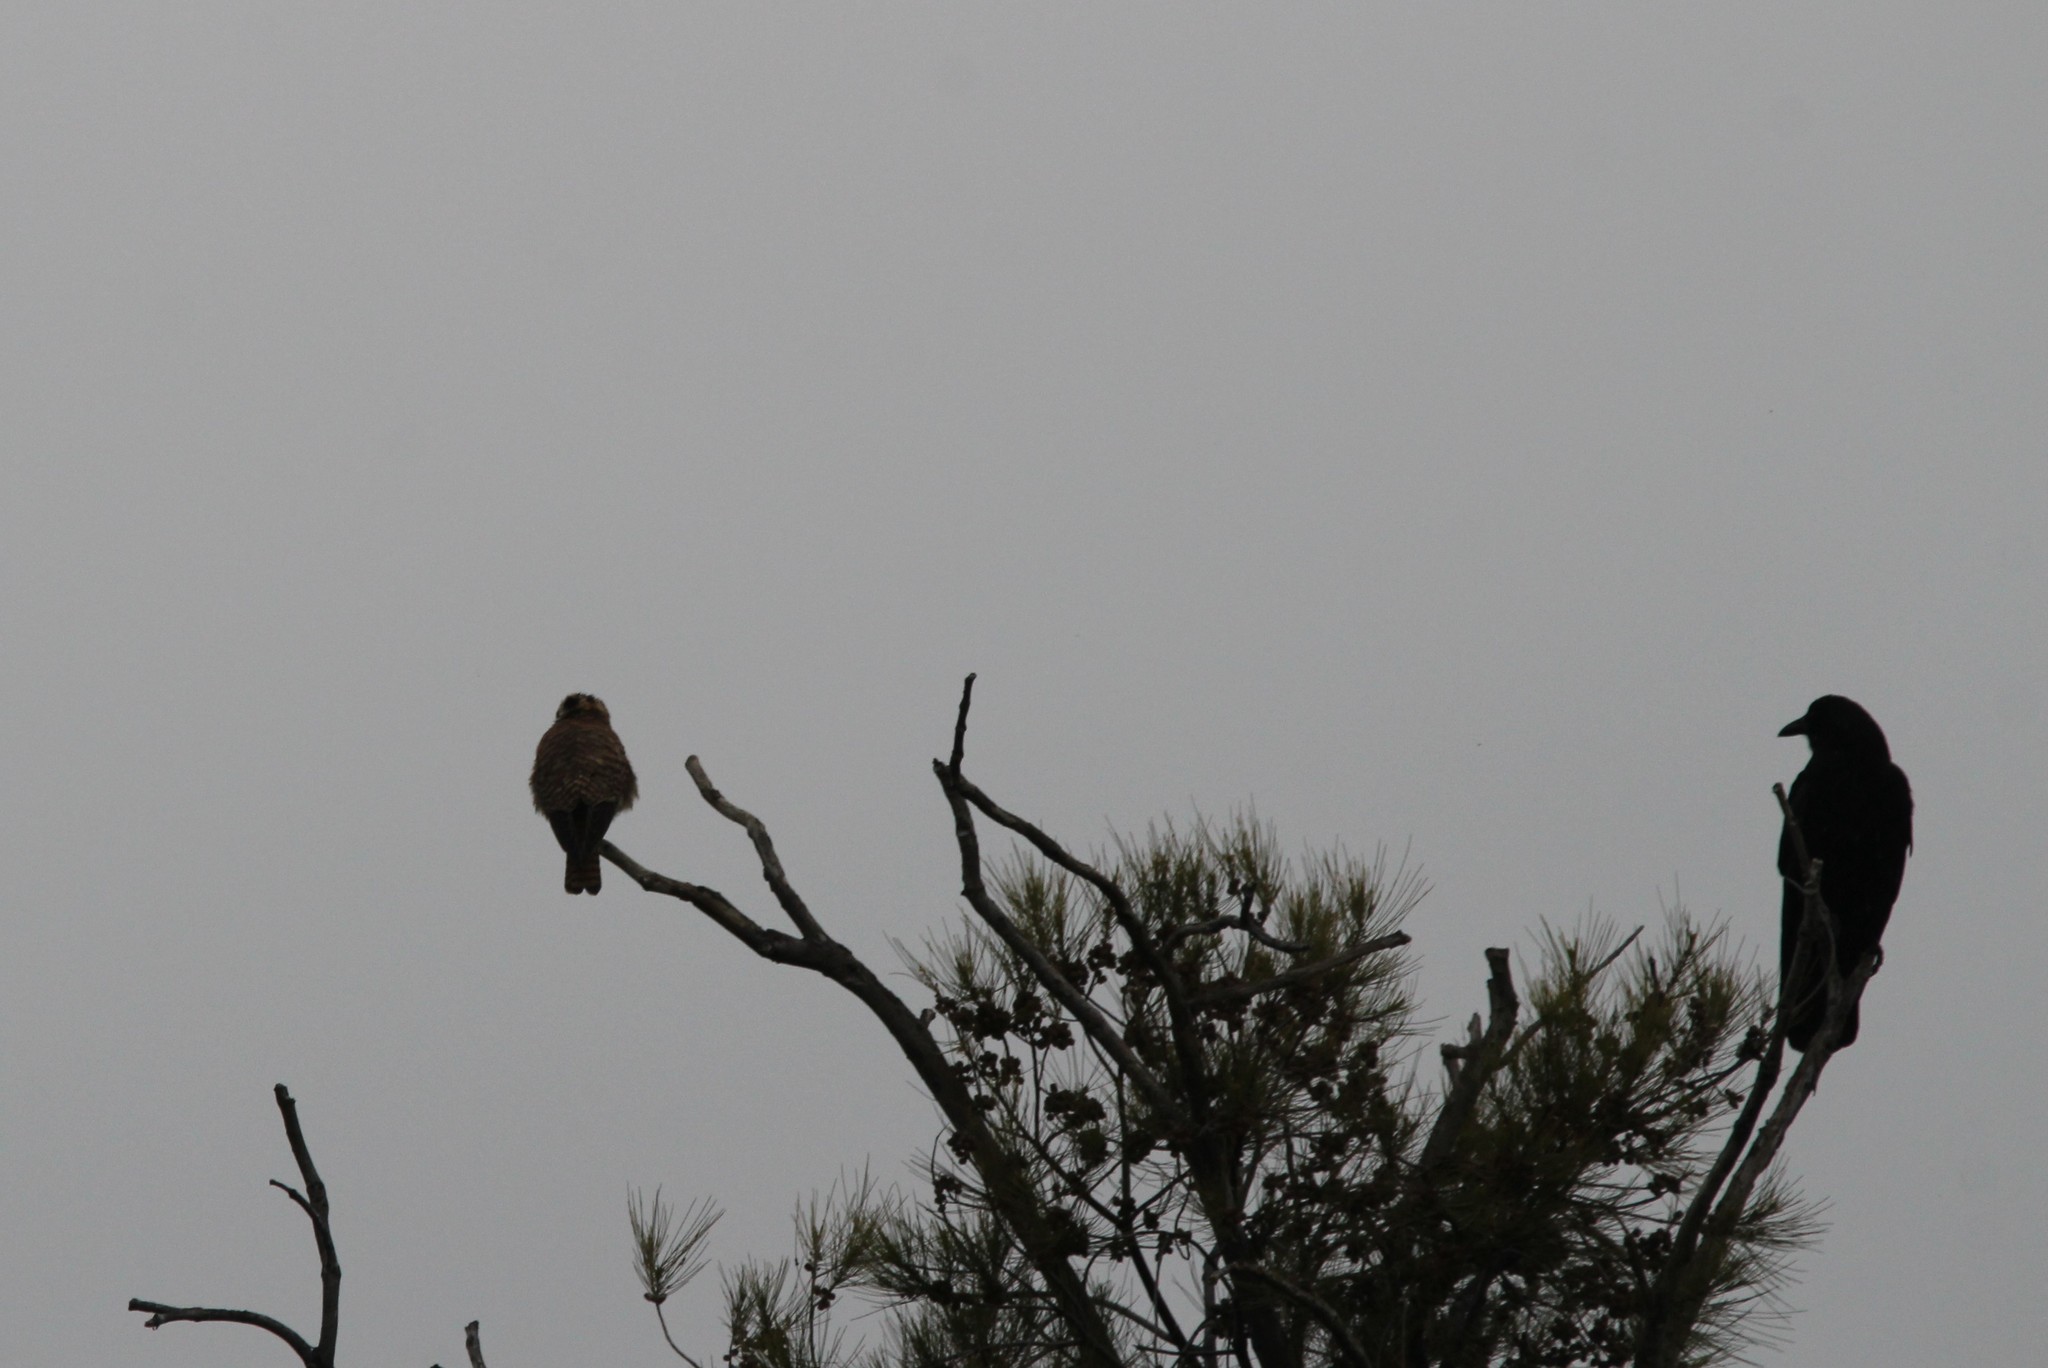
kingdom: Animalia
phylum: Chordata
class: Aves
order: Falconiformes
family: Falconidae
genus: Falco
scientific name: Falco sparverius
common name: American kestrel
